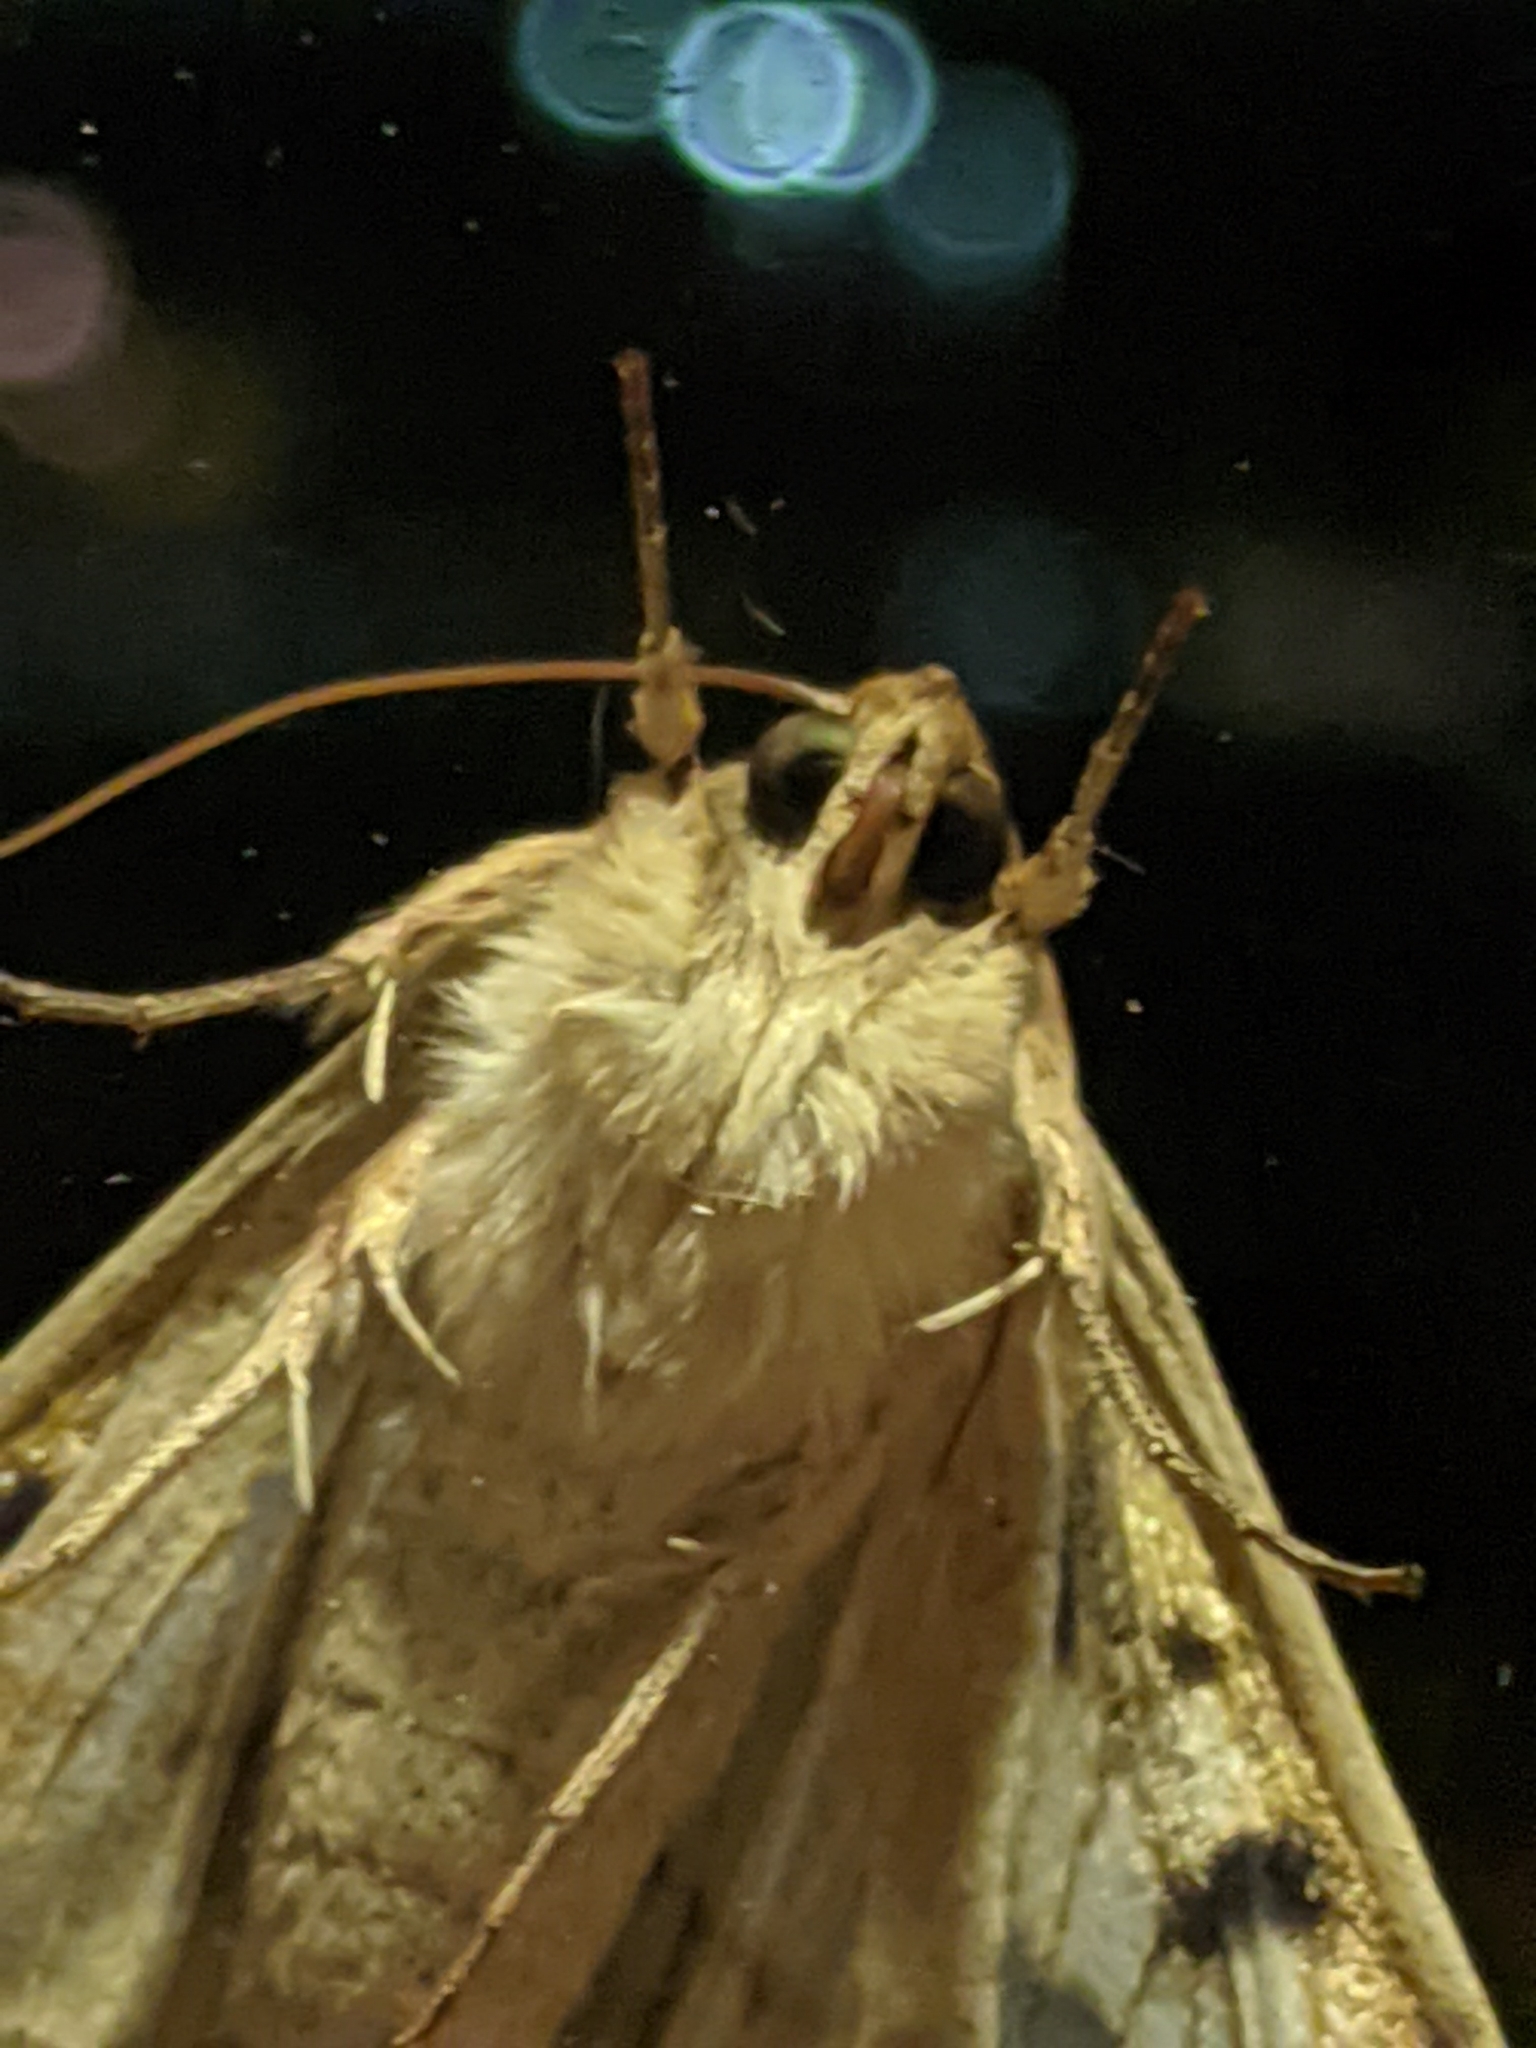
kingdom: Animalia
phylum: Arthropoda
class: Insecta
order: Lepidoptera
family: Noctuidae
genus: Helicoverpa
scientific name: Helicoverpa zea
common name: Bollworm
